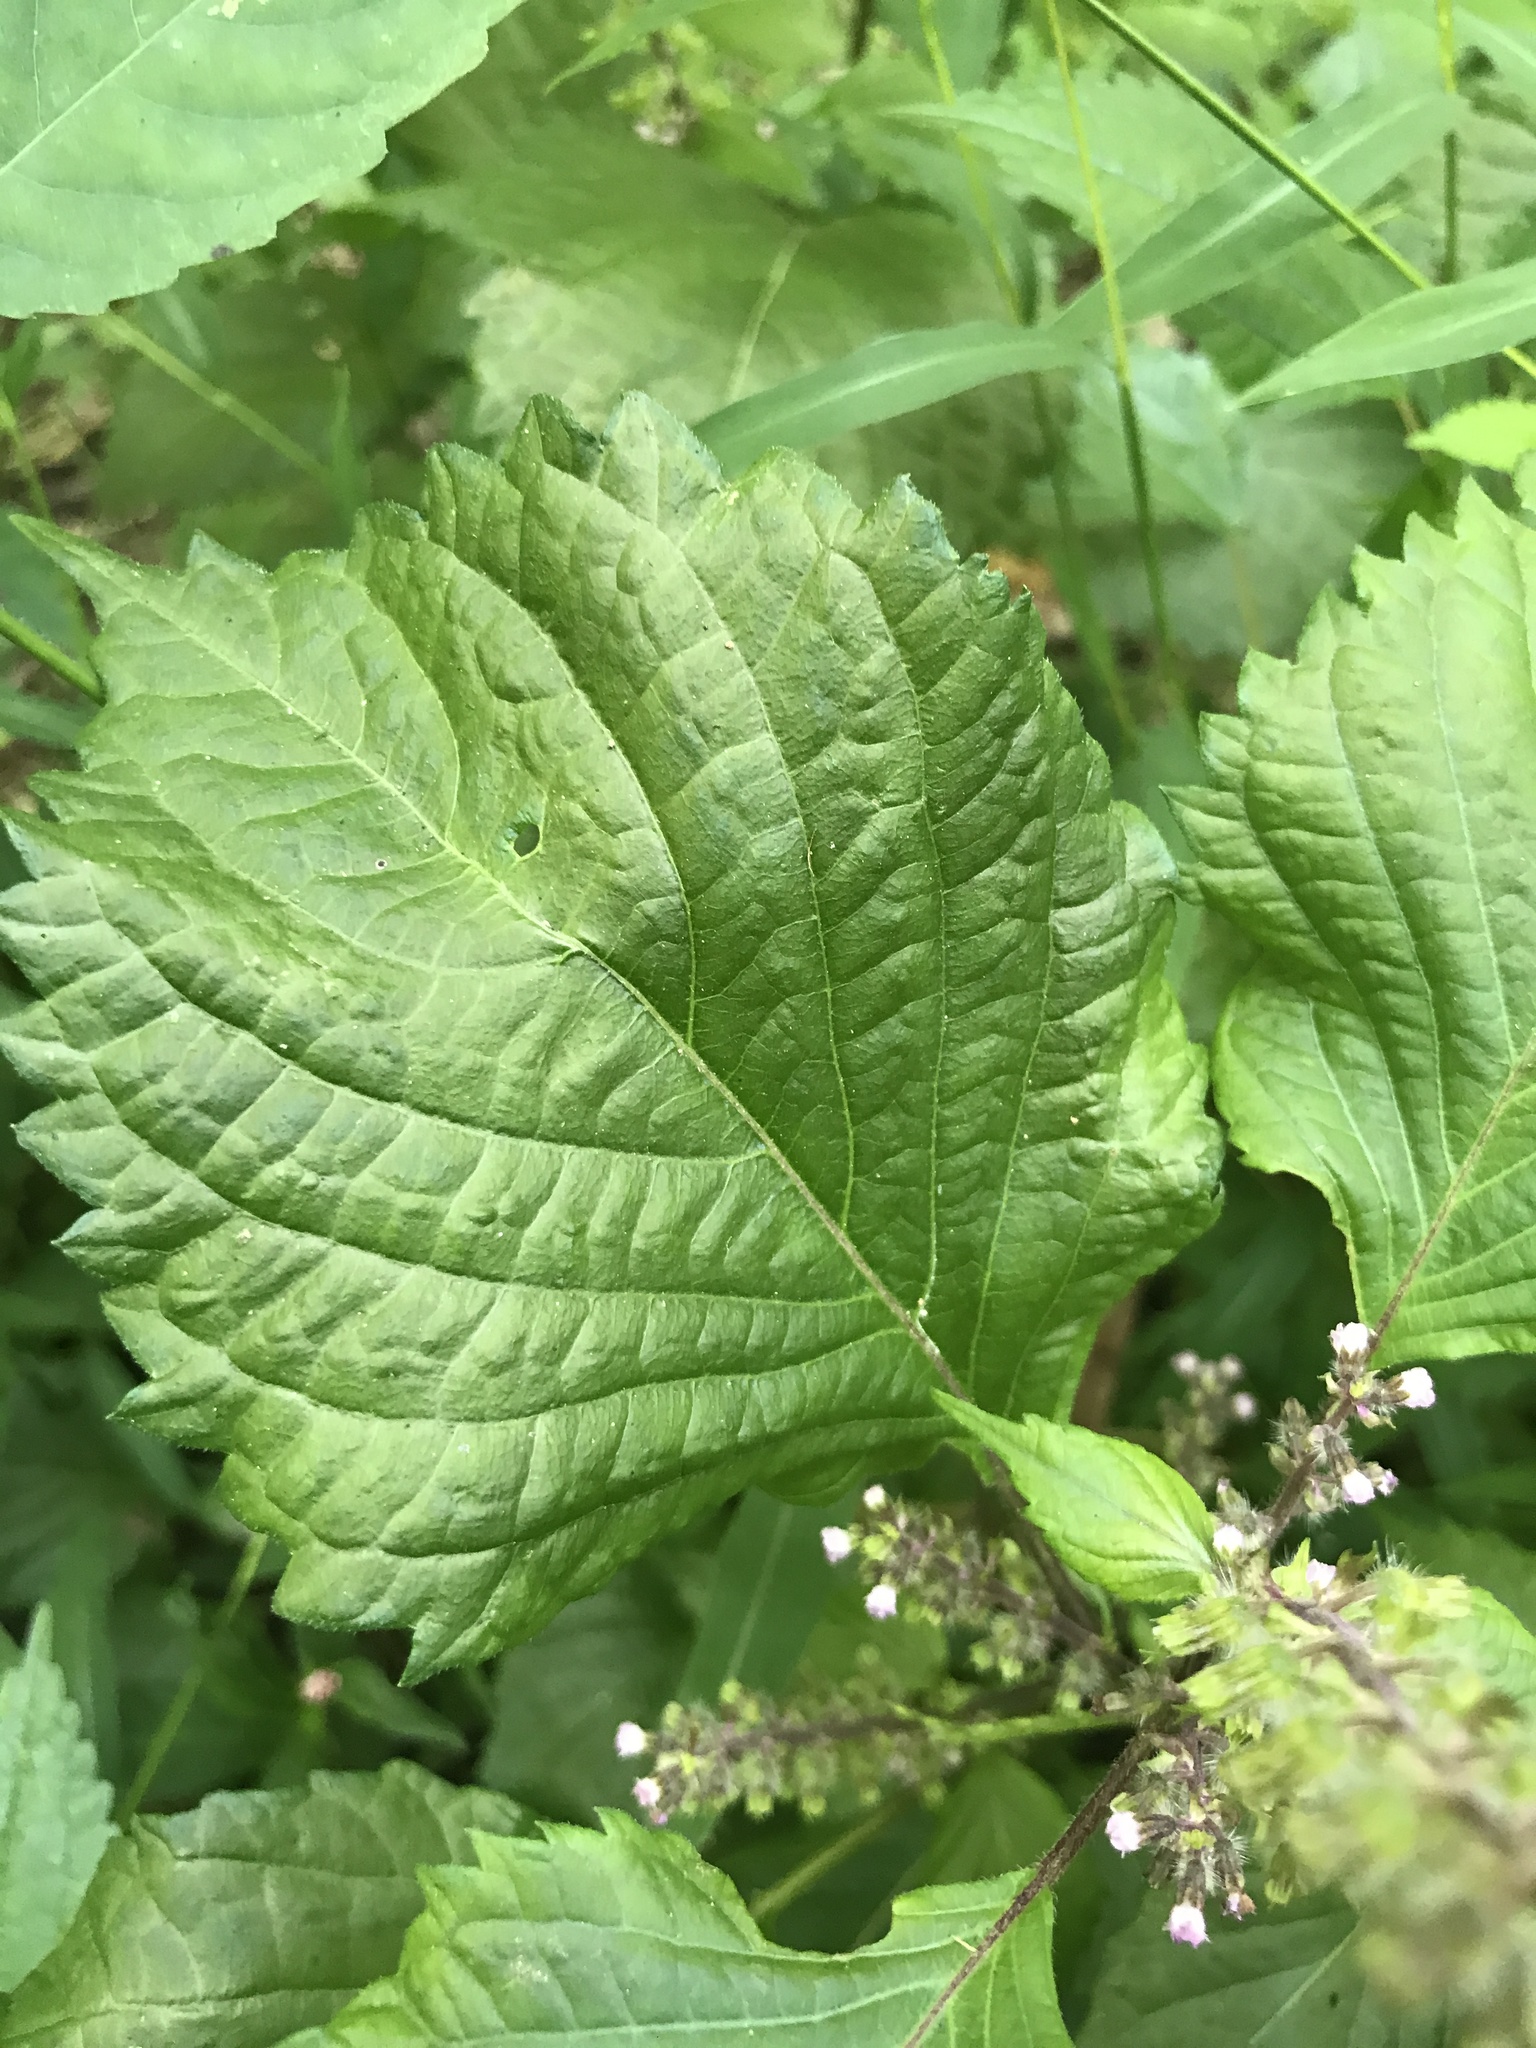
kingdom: Plantae
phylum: Tracheophyta
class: Magnoliopsida
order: Lamiales
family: Lamiaceae
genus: Perilla
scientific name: Perilla frutescens
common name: Perilla
